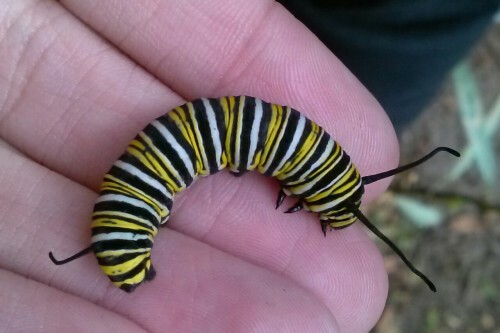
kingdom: Animalia
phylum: Arthropoda
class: Insecta
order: Lepidoptera
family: Nymphalidae
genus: Danaus
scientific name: Danaus plexippus
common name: Monarch
